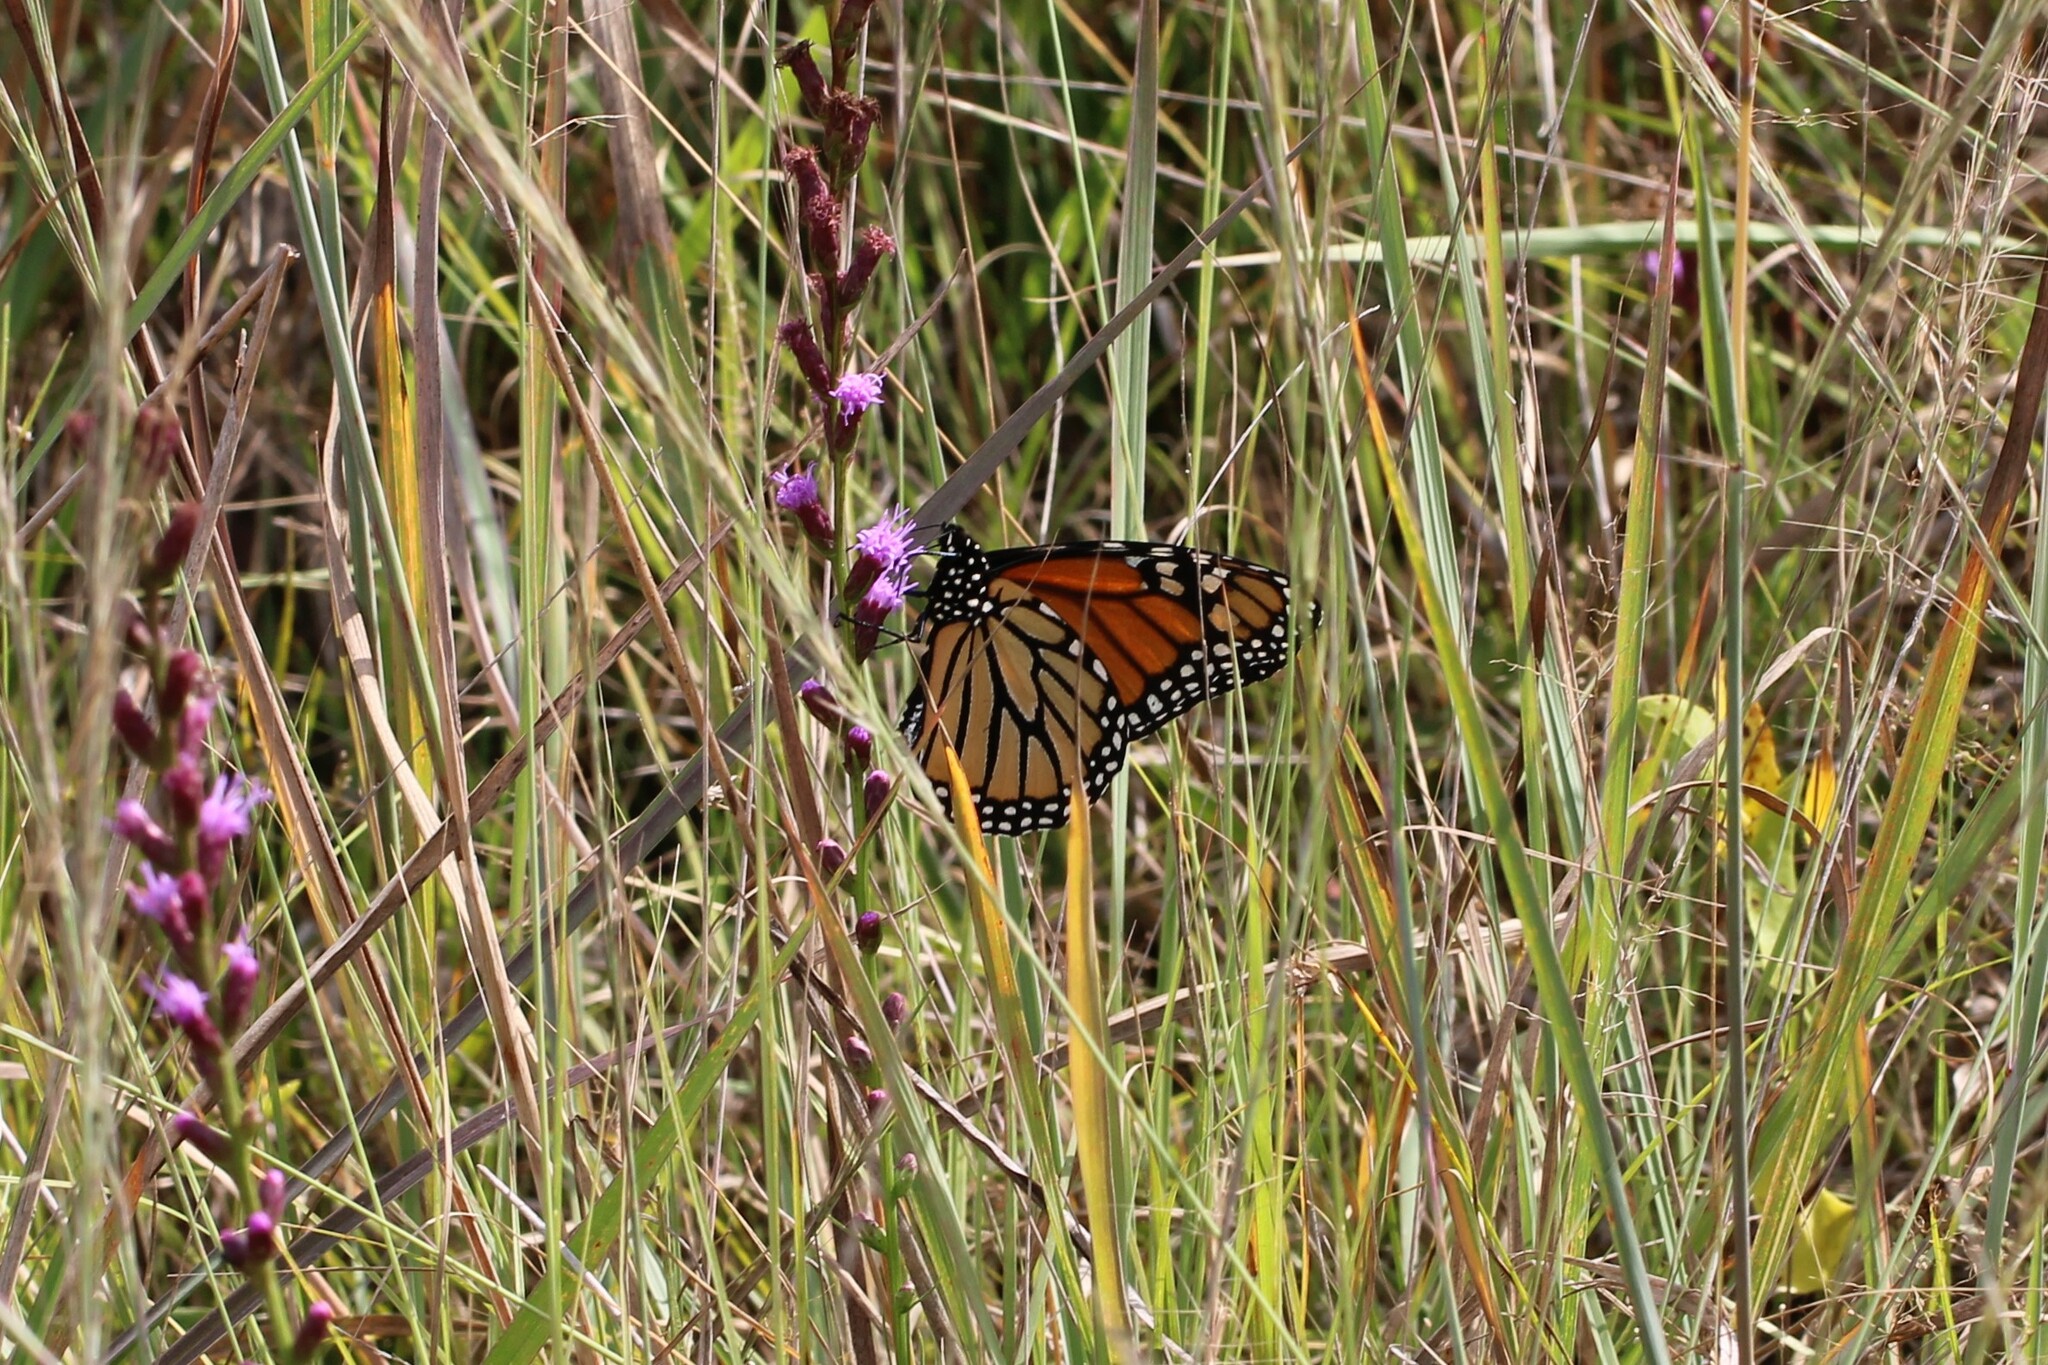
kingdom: Animalia
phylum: Arthropoda
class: Insecta
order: Lepidoptera
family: Nymphalidae
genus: Danaus
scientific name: Danaus plexippus
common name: Monarch
